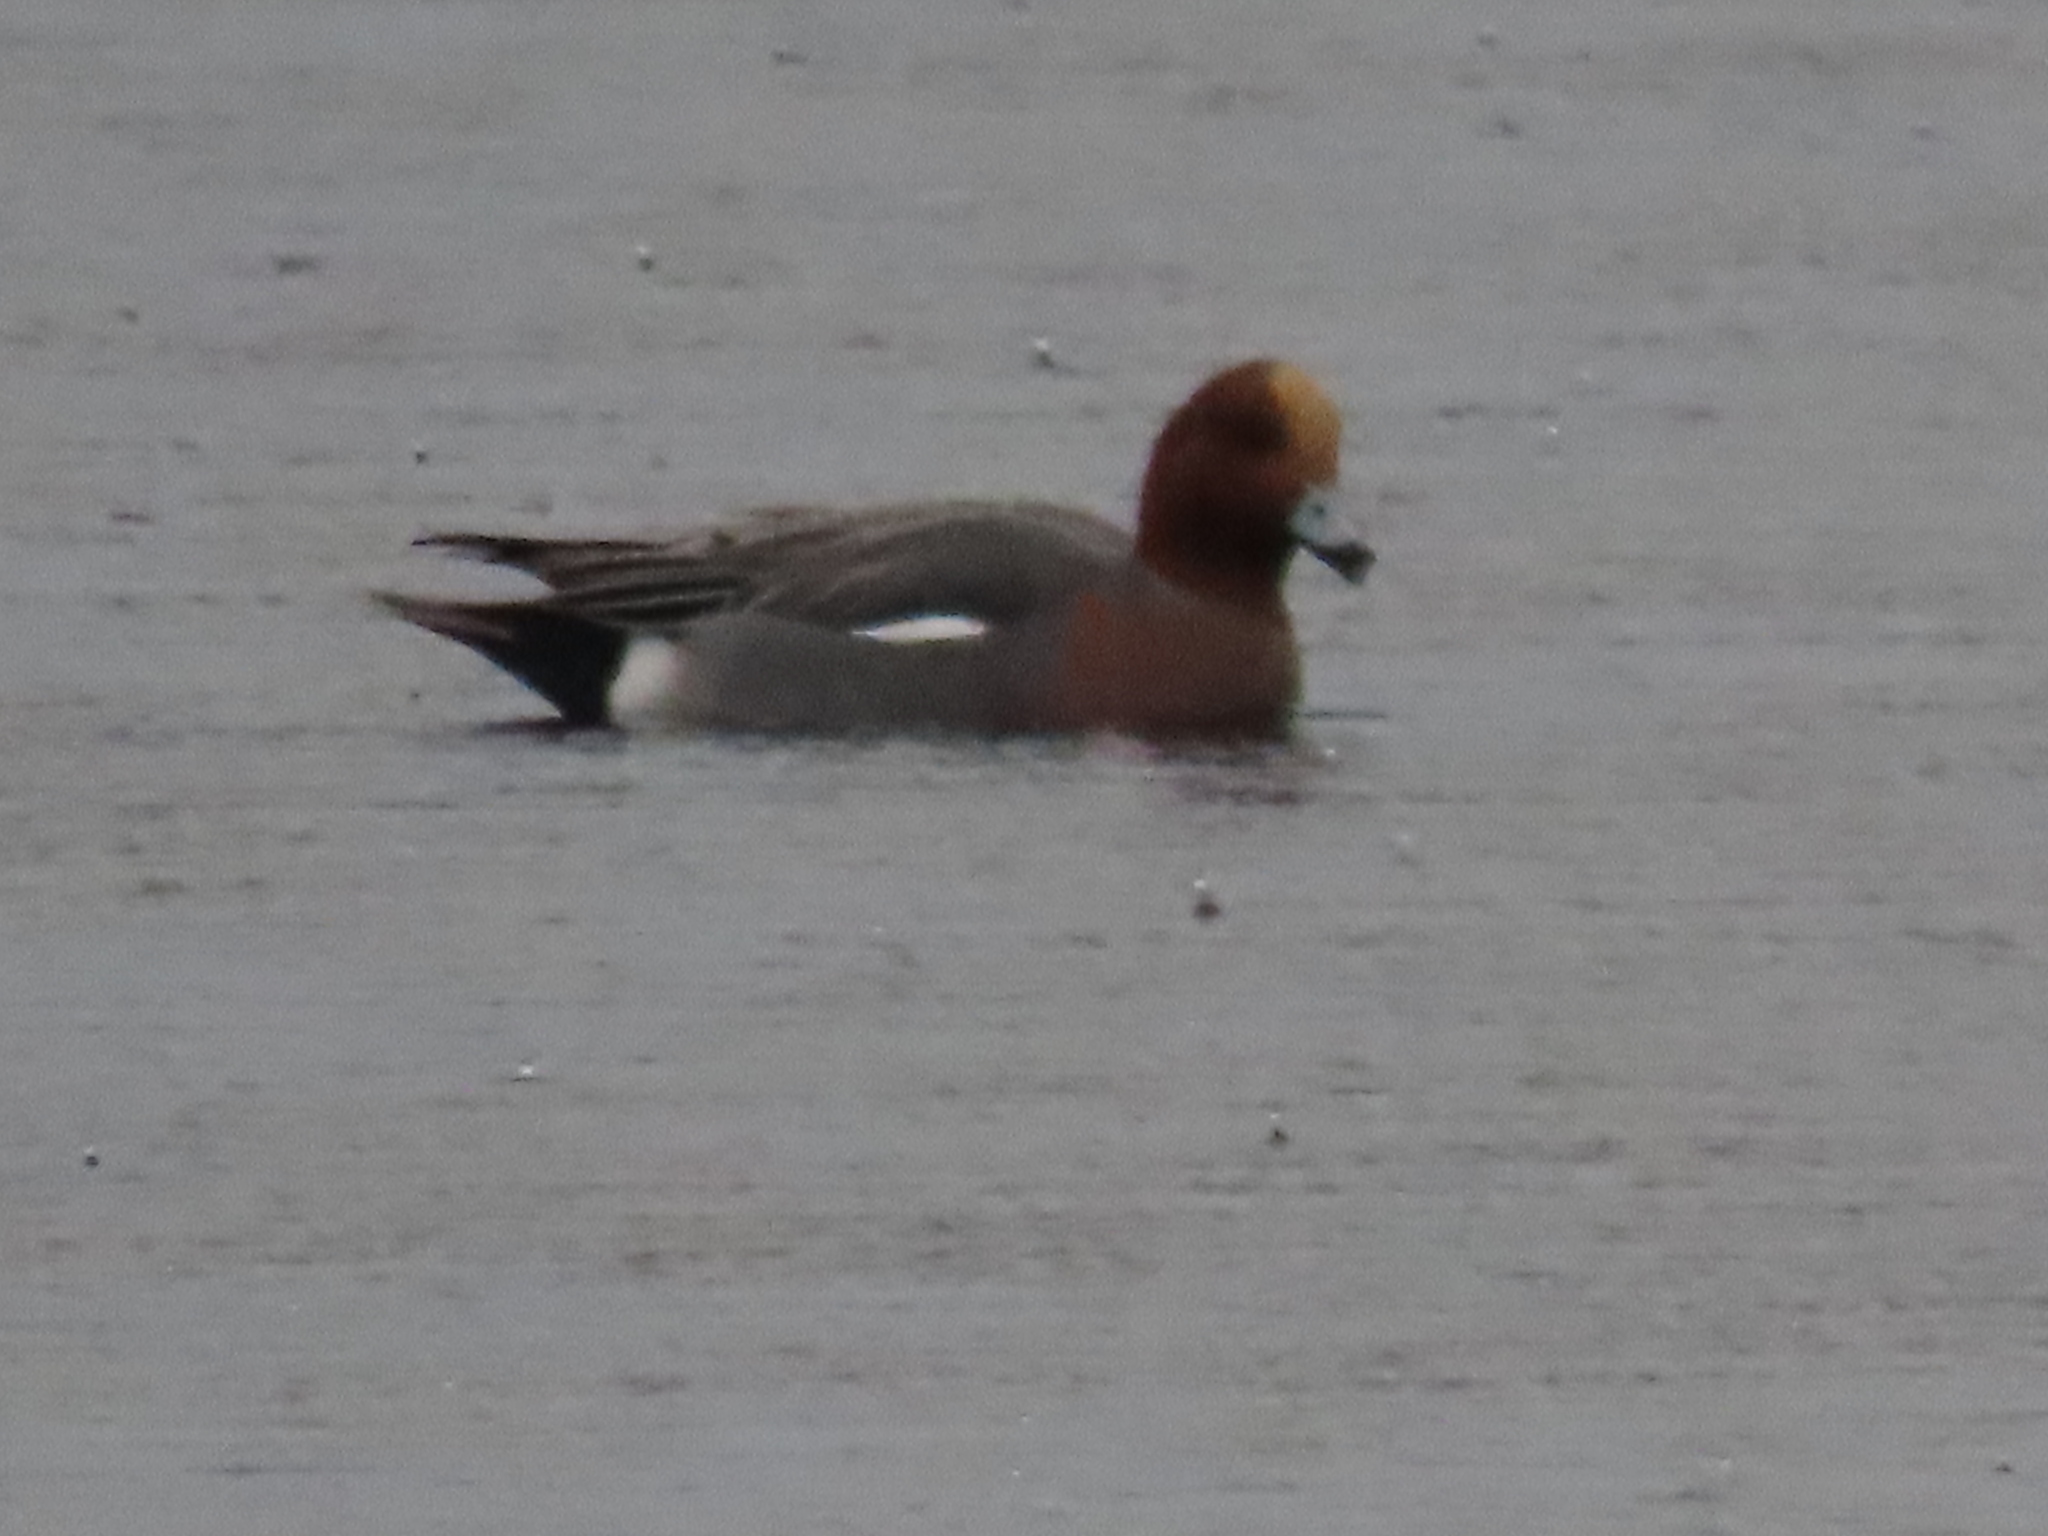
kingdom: Animalia
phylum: Chordata
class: Aves
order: Anseriformes
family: Anatidae
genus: Mareca
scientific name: Mareca penelope
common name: Eurasian wigeon
